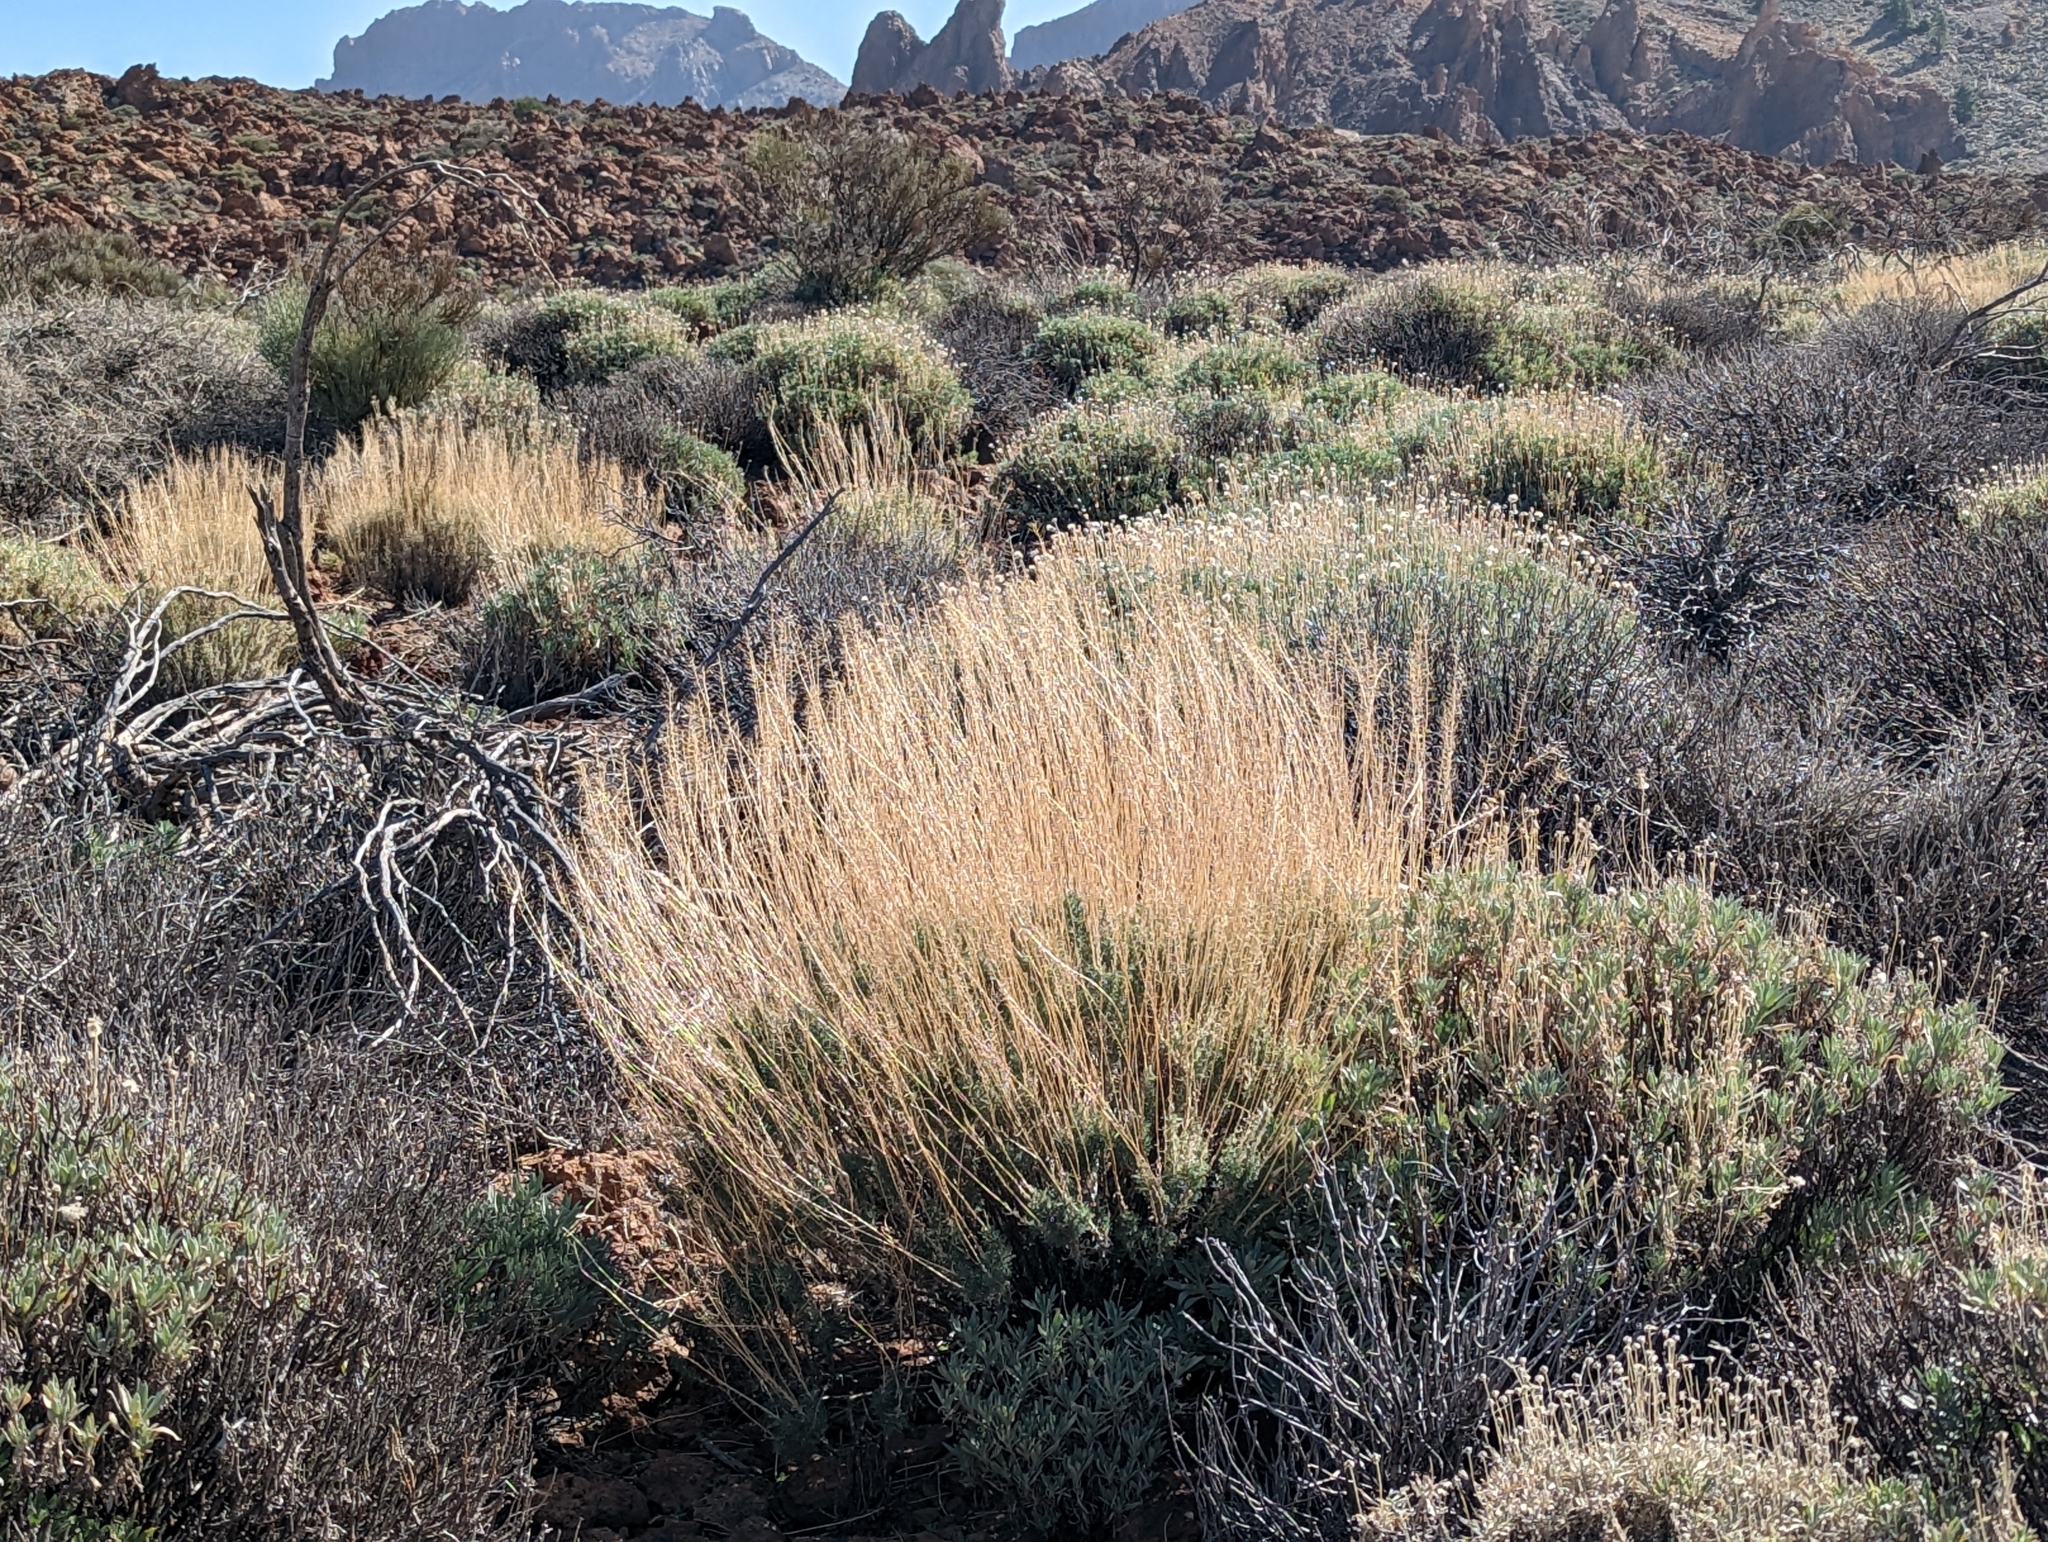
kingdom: Plantae
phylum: Tracheophyta
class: Magnoliopsida
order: Brassicales
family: Brassicaceae
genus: Descurainia
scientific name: Descurainia bourgaeana
